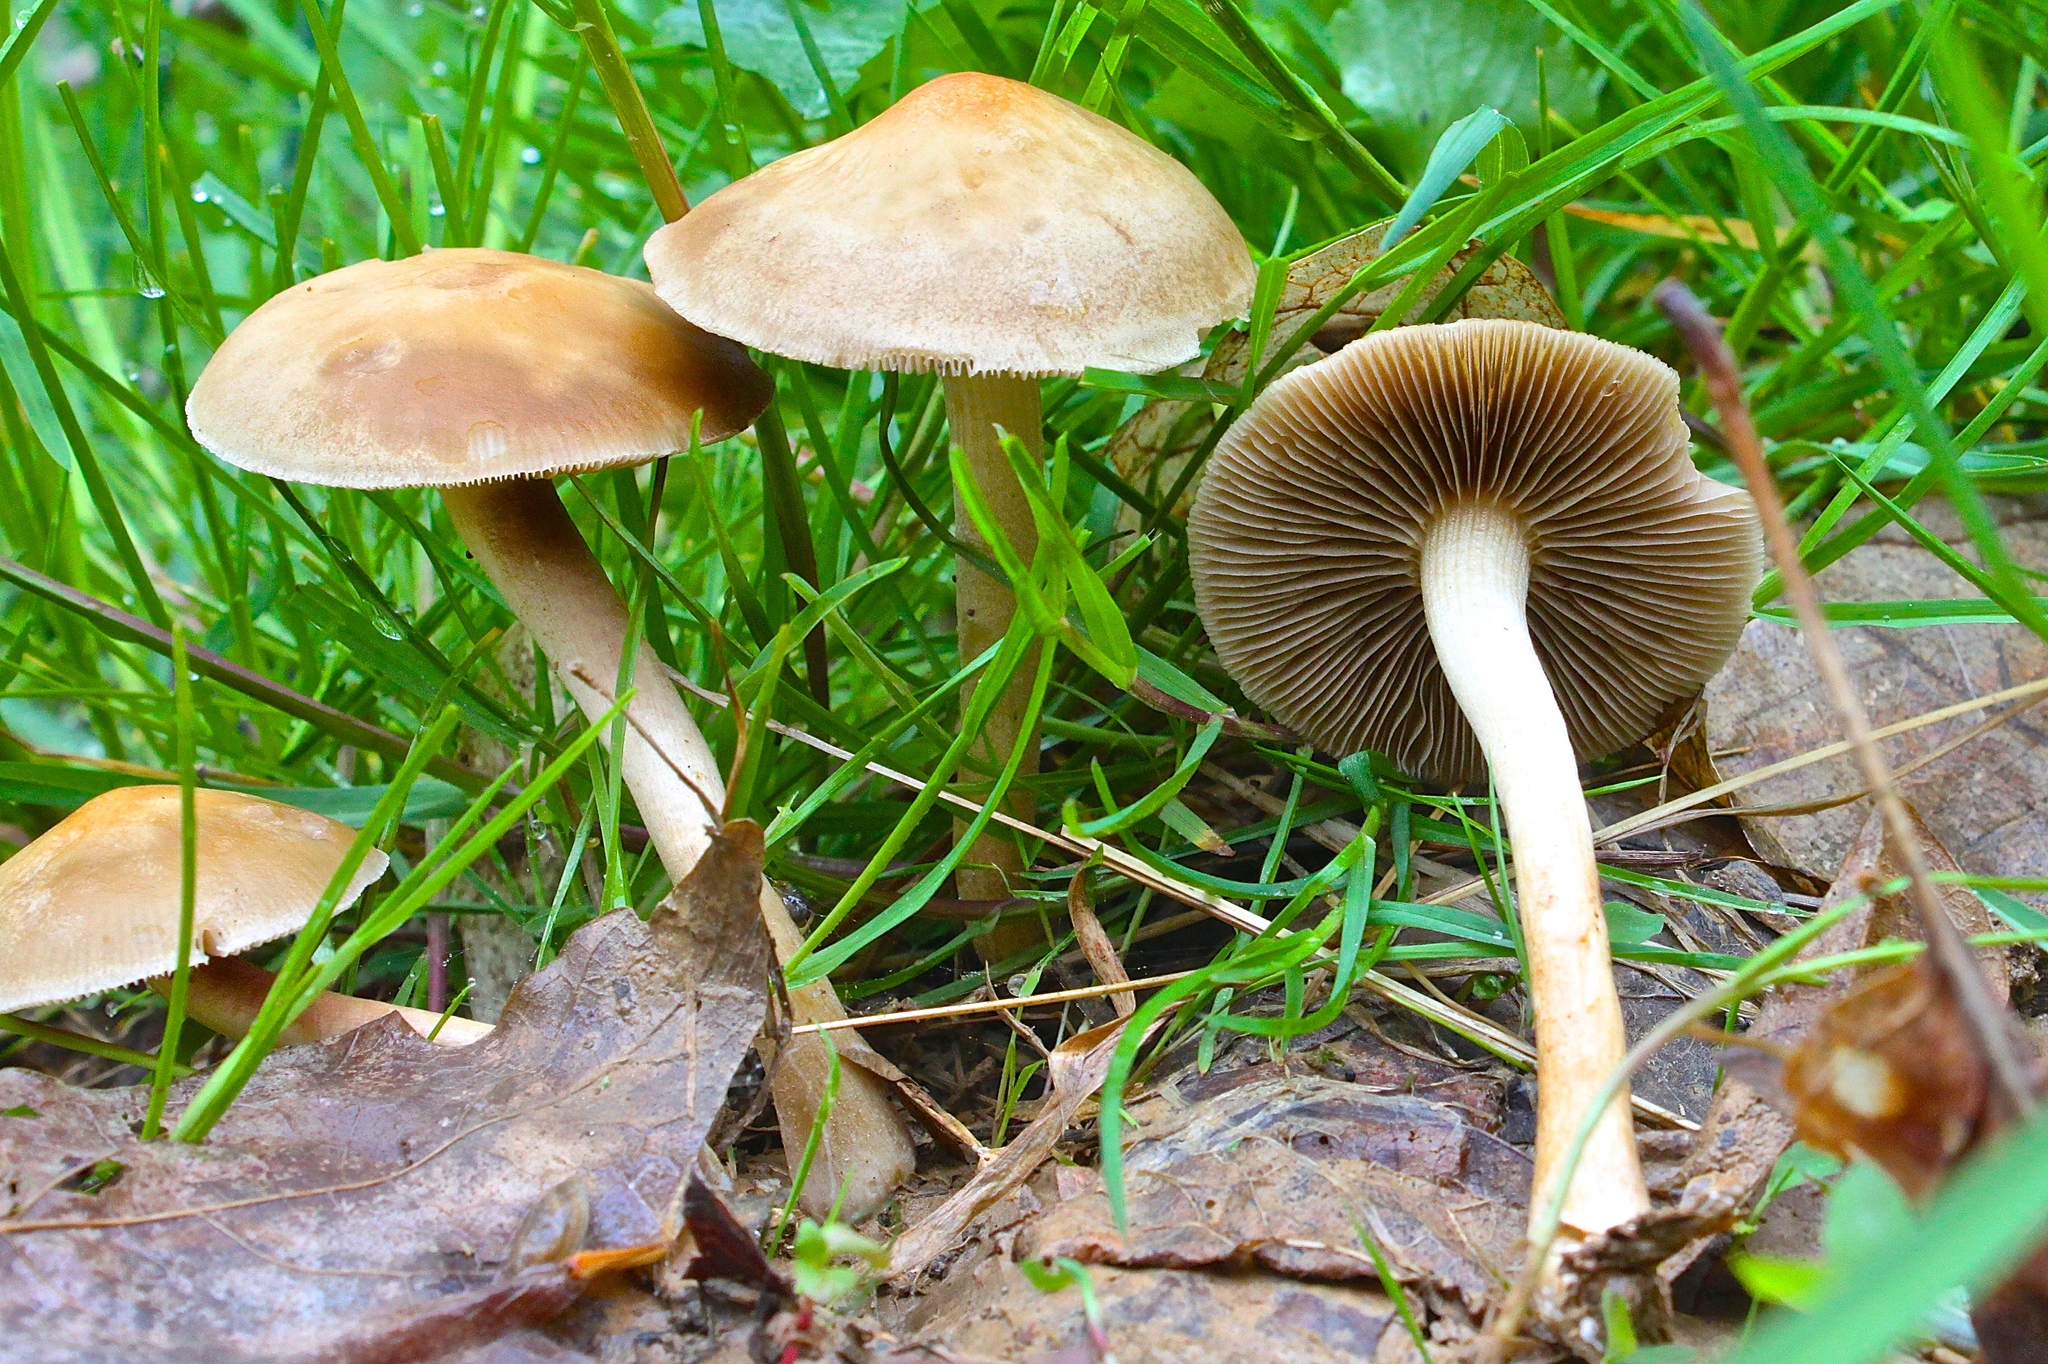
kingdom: Fungi
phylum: Basidiomycota
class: Agaricomycetes
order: Agaricales
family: Strophariaceae
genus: Agrocybe
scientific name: Agrocybe praecox
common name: Spring fieldcap
